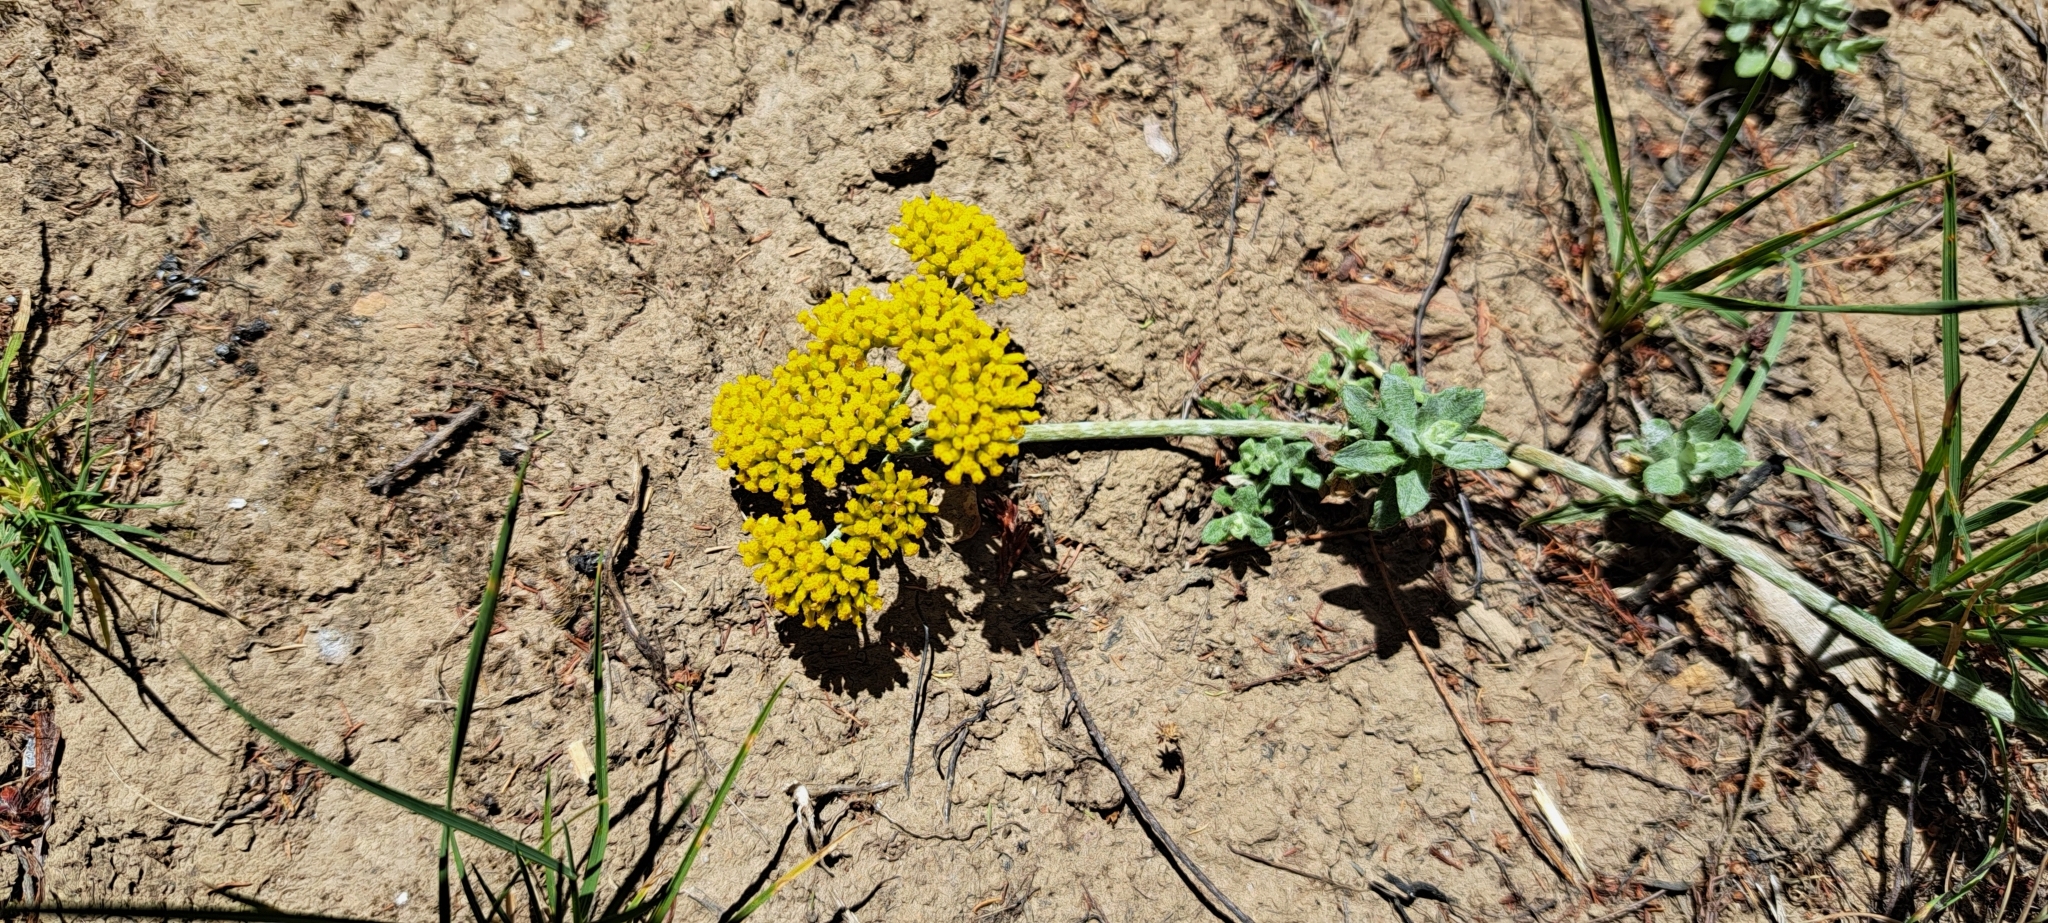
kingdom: Plantae
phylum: Tracheophyta
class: Magnoliopsida
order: Asterales
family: Asteraceae
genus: Helichrysum
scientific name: Helichrysum cymosum
